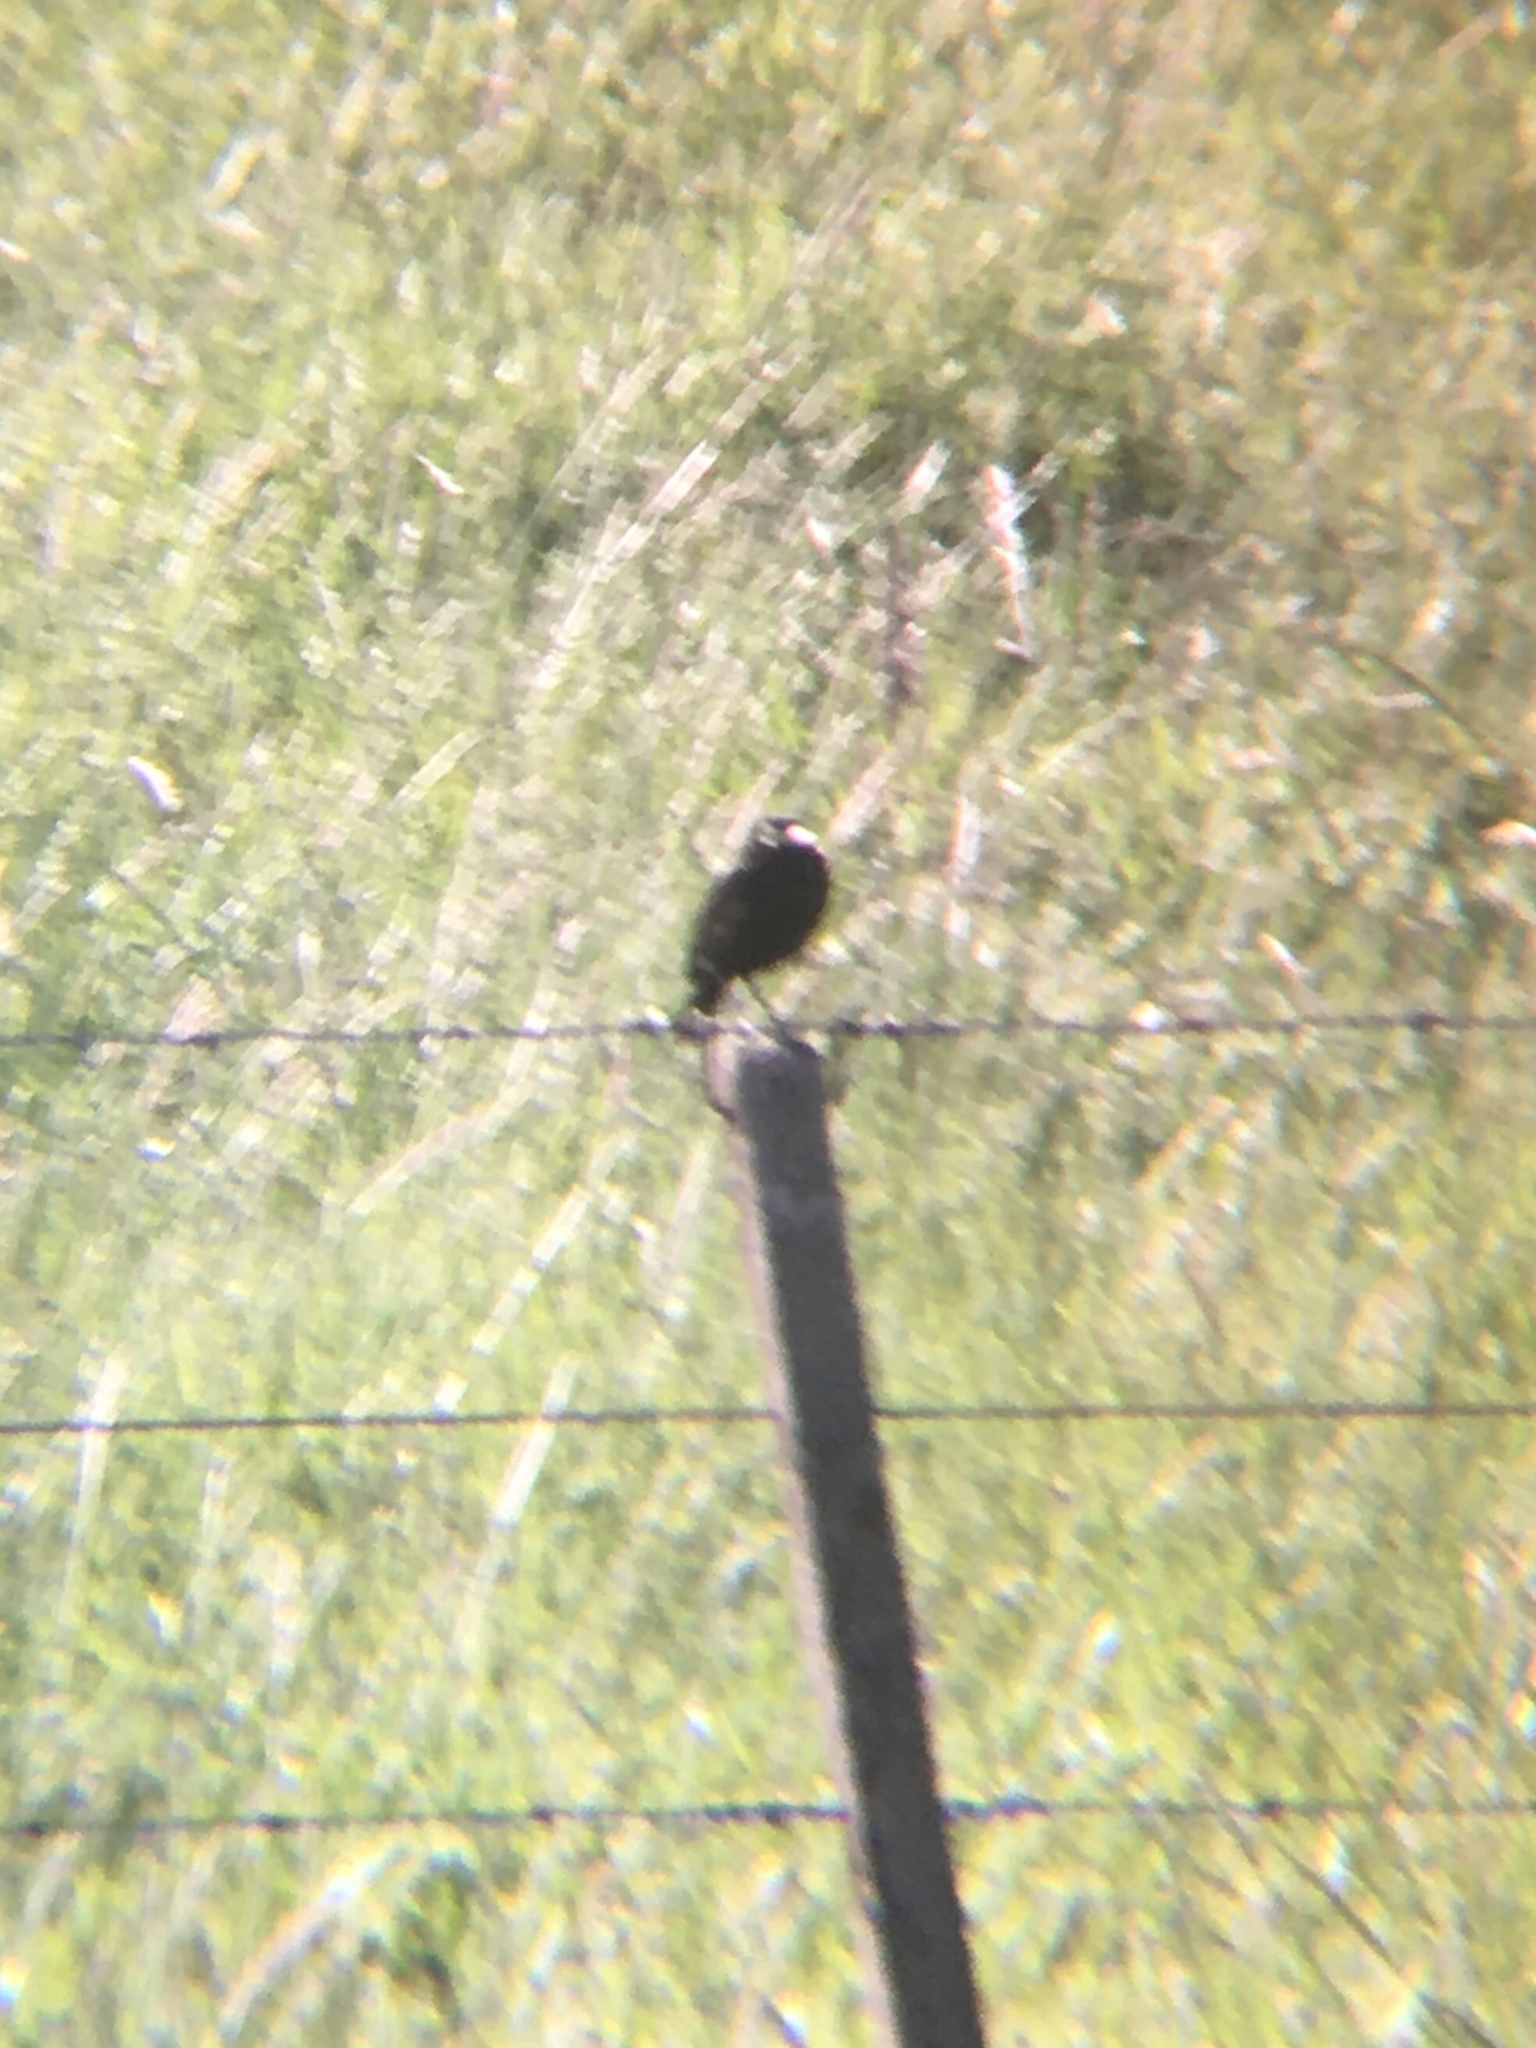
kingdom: Animalia
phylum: Chordata
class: Aves
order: Passeriformes
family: Tyrannidae
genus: Hymenops
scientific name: Hymenops perspicillatus
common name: Spectacled tyrant
